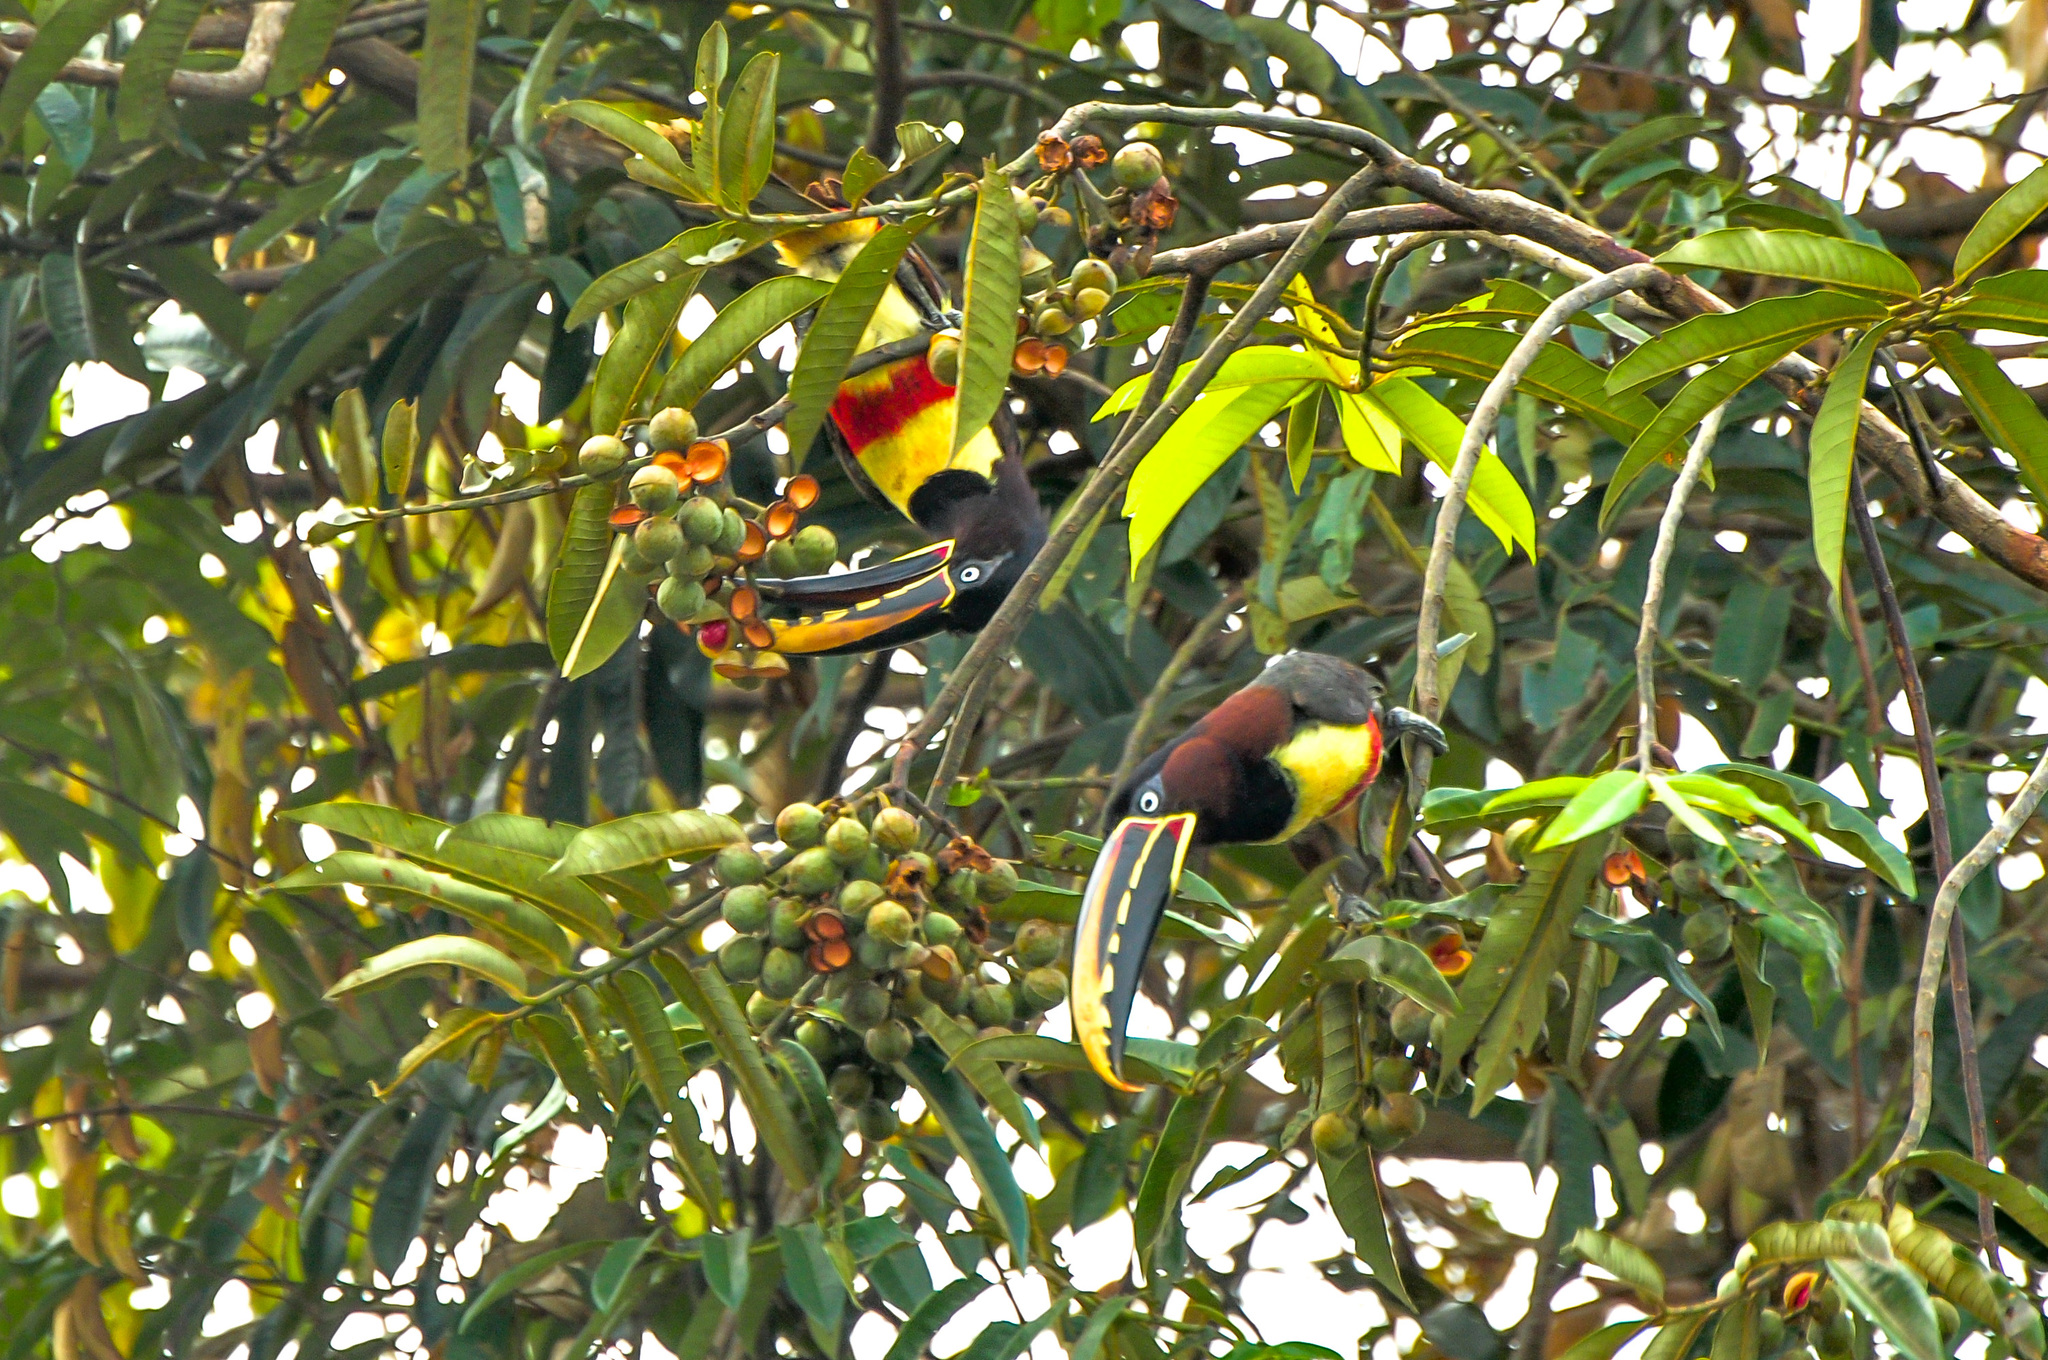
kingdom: Animalia
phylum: Chordata
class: Aves
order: Piciformes
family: Ramphastidae
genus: Pteroglossus
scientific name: Pteroglossus castanotis
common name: Chestnut-eared aracari
